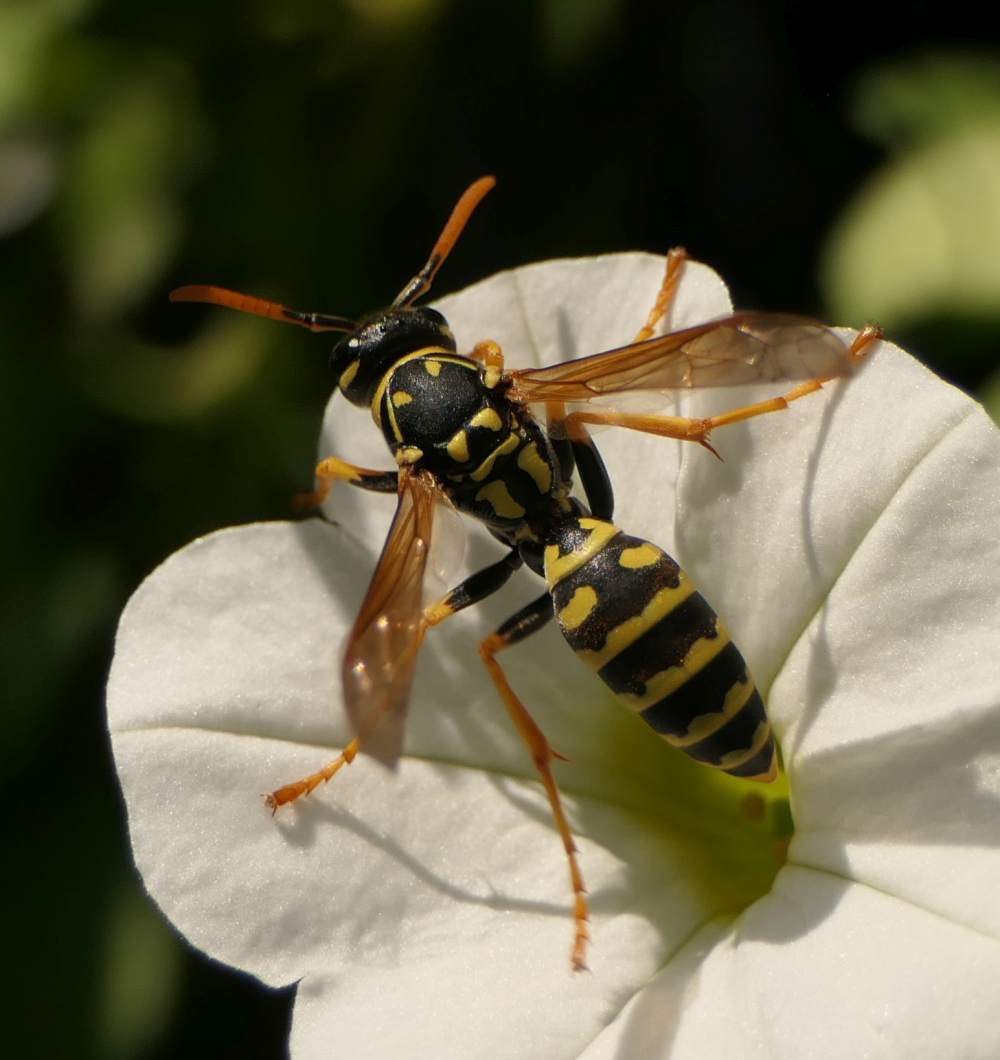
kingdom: Animalia
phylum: Arthropoda
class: Insecta
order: Hymenoptera
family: Eumenidae
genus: Polistes
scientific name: Polistes dominula
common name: Paper wasp
